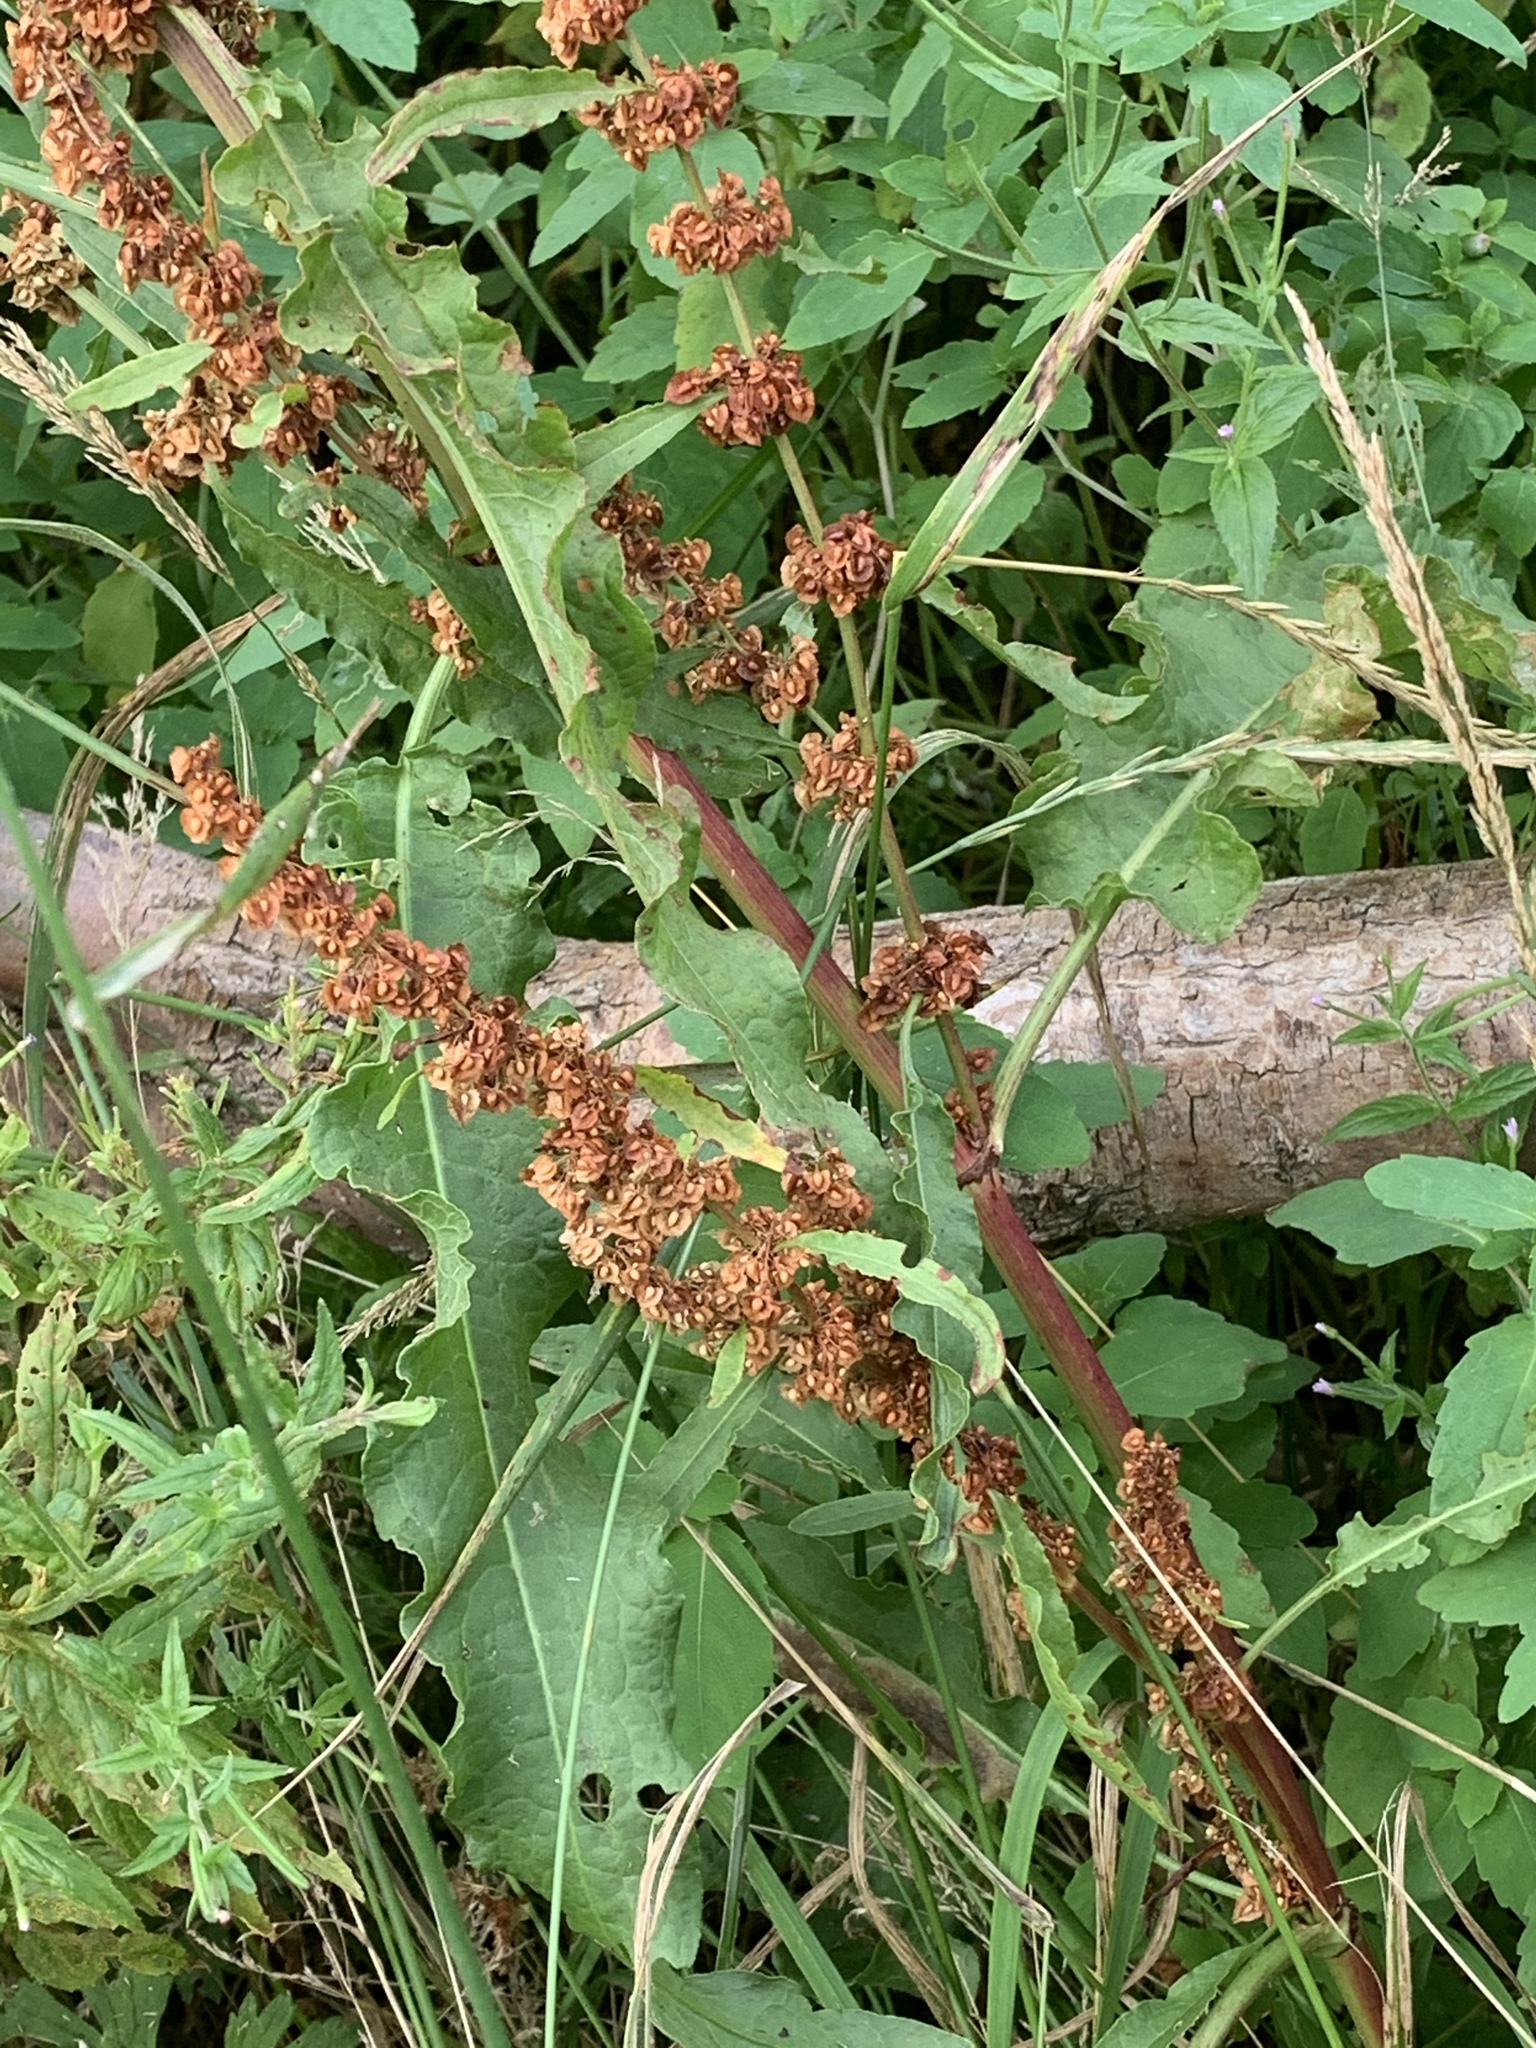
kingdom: Plantae
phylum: Tracheophyta
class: Magnoliopsida
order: Caryophyllales
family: Polygonaceae
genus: Rumex
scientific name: Rumex crispus
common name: Curled dock
